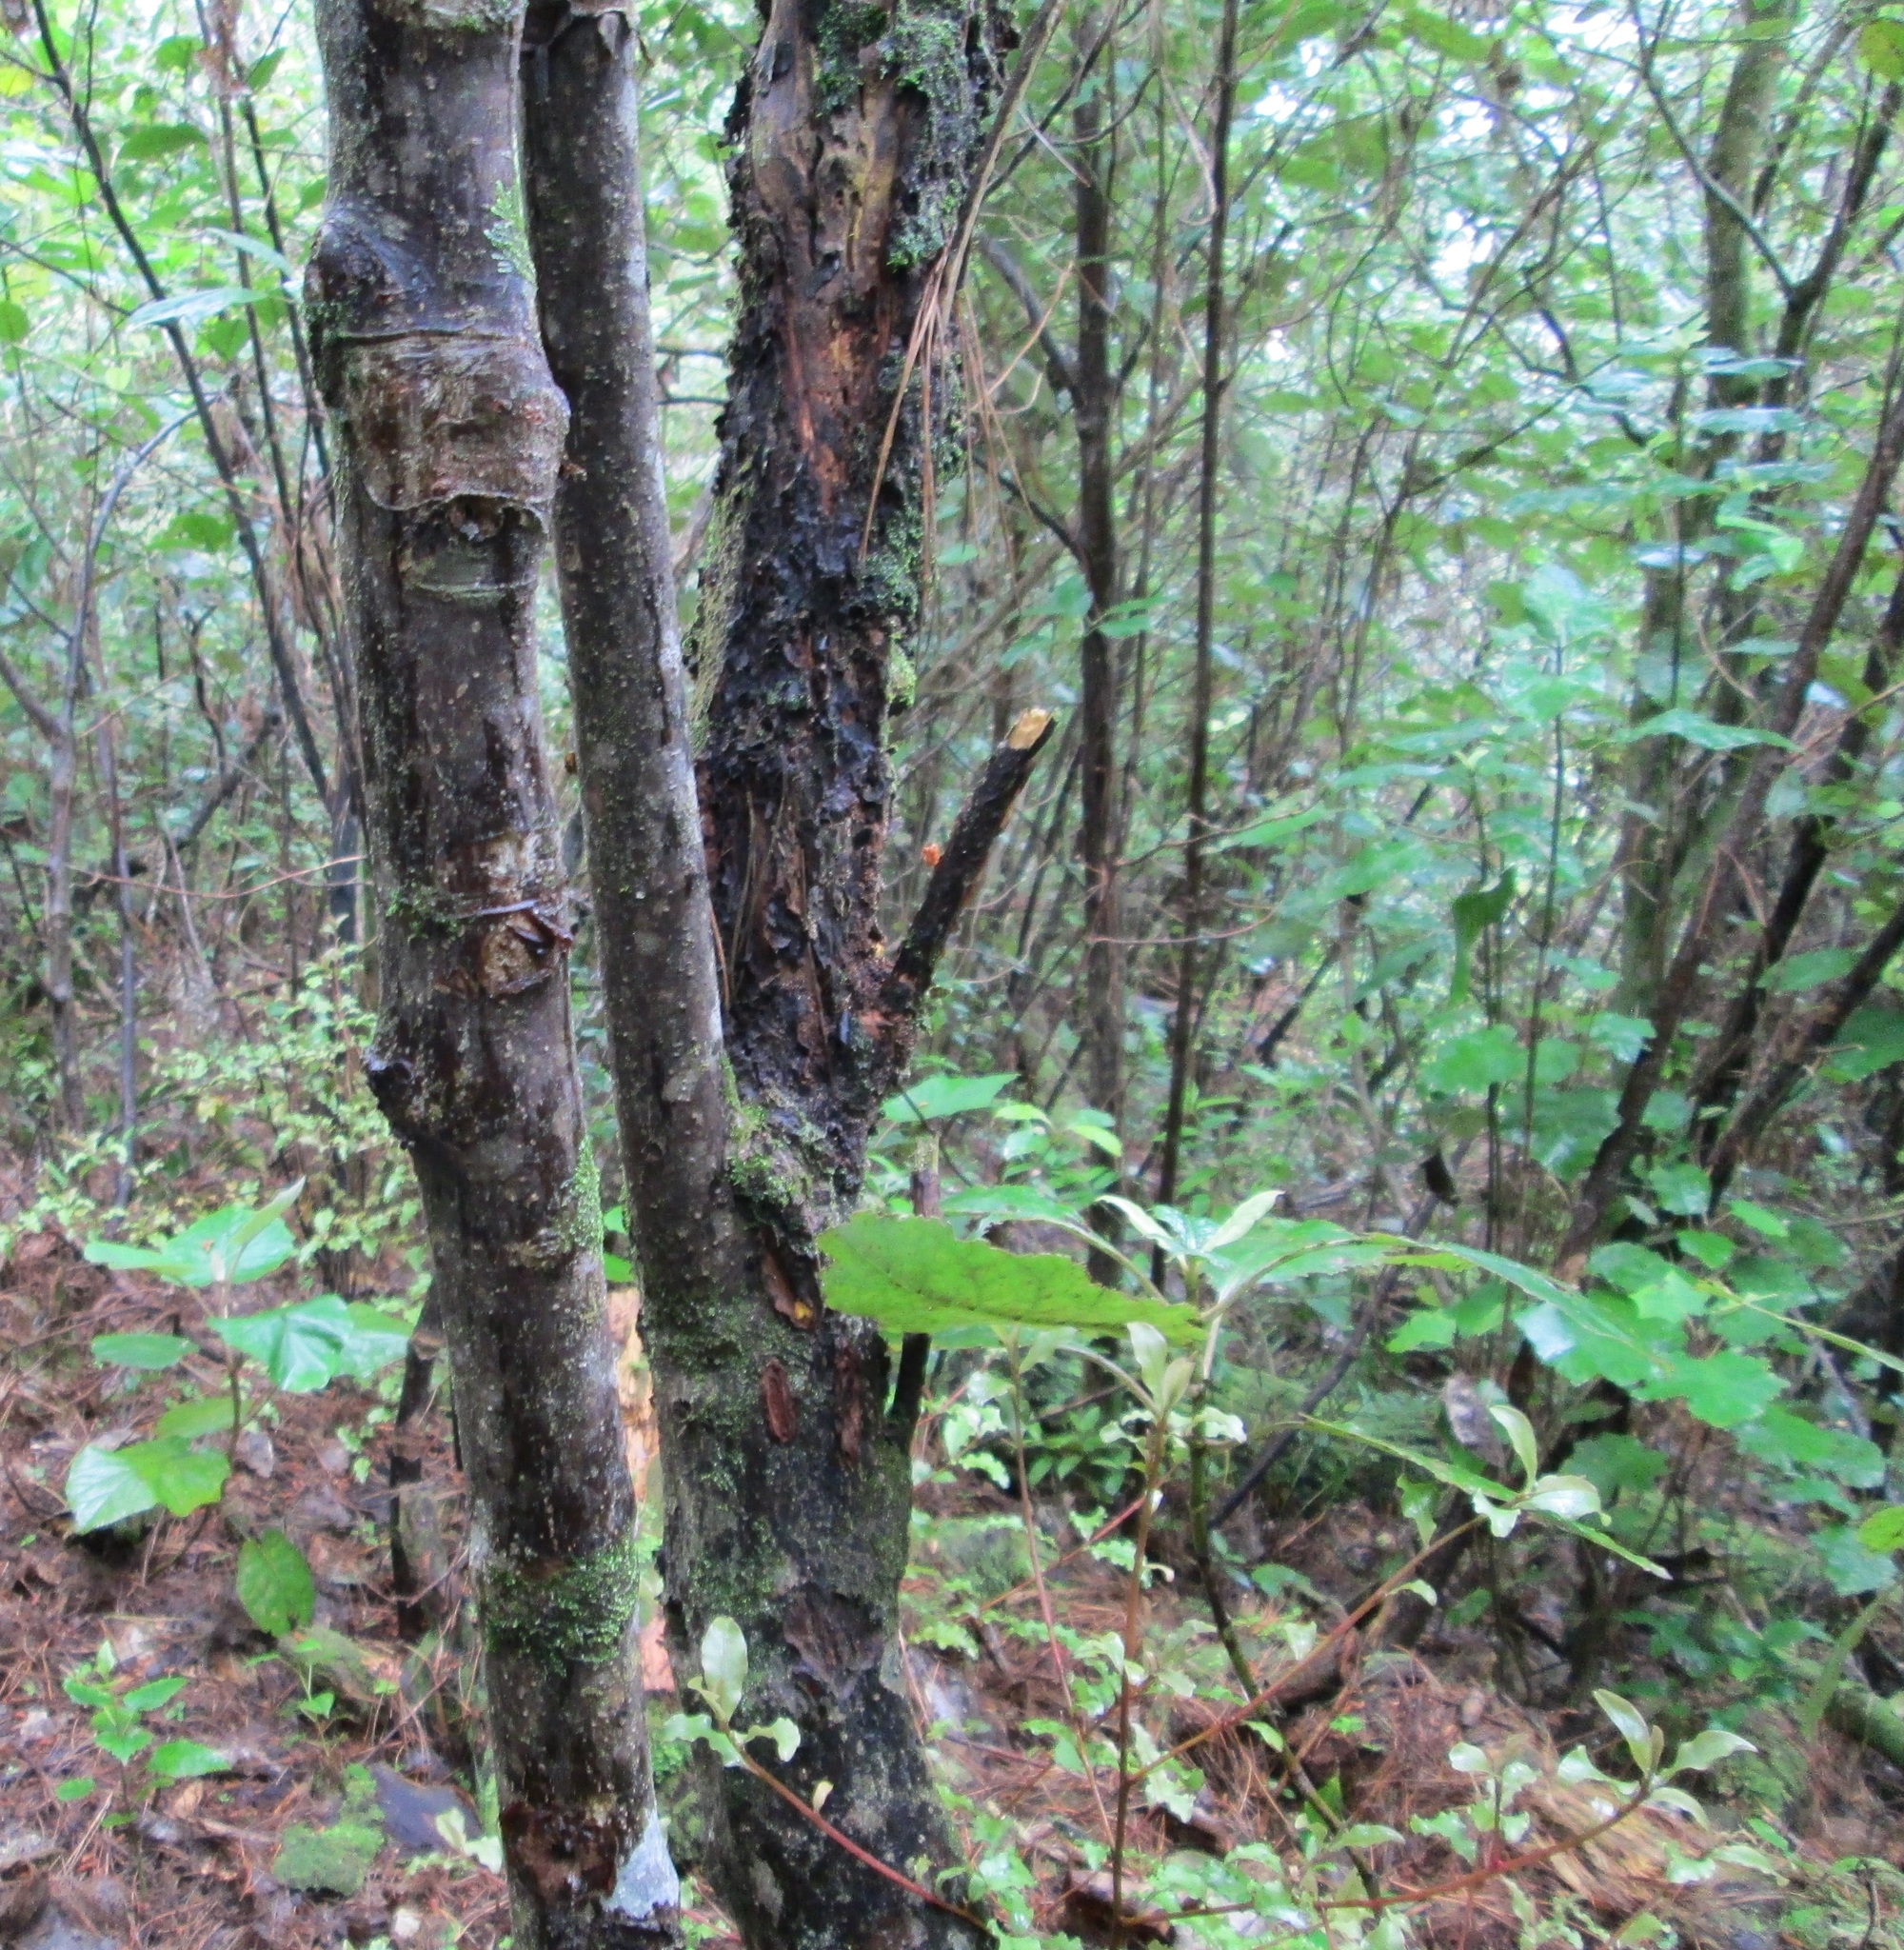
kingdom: Plantae
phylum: Tracheophyta
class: Magnoliopsida
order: Gentianales
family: Rubiaceae
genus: Coprosma
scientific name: Coprosma autumnalis
